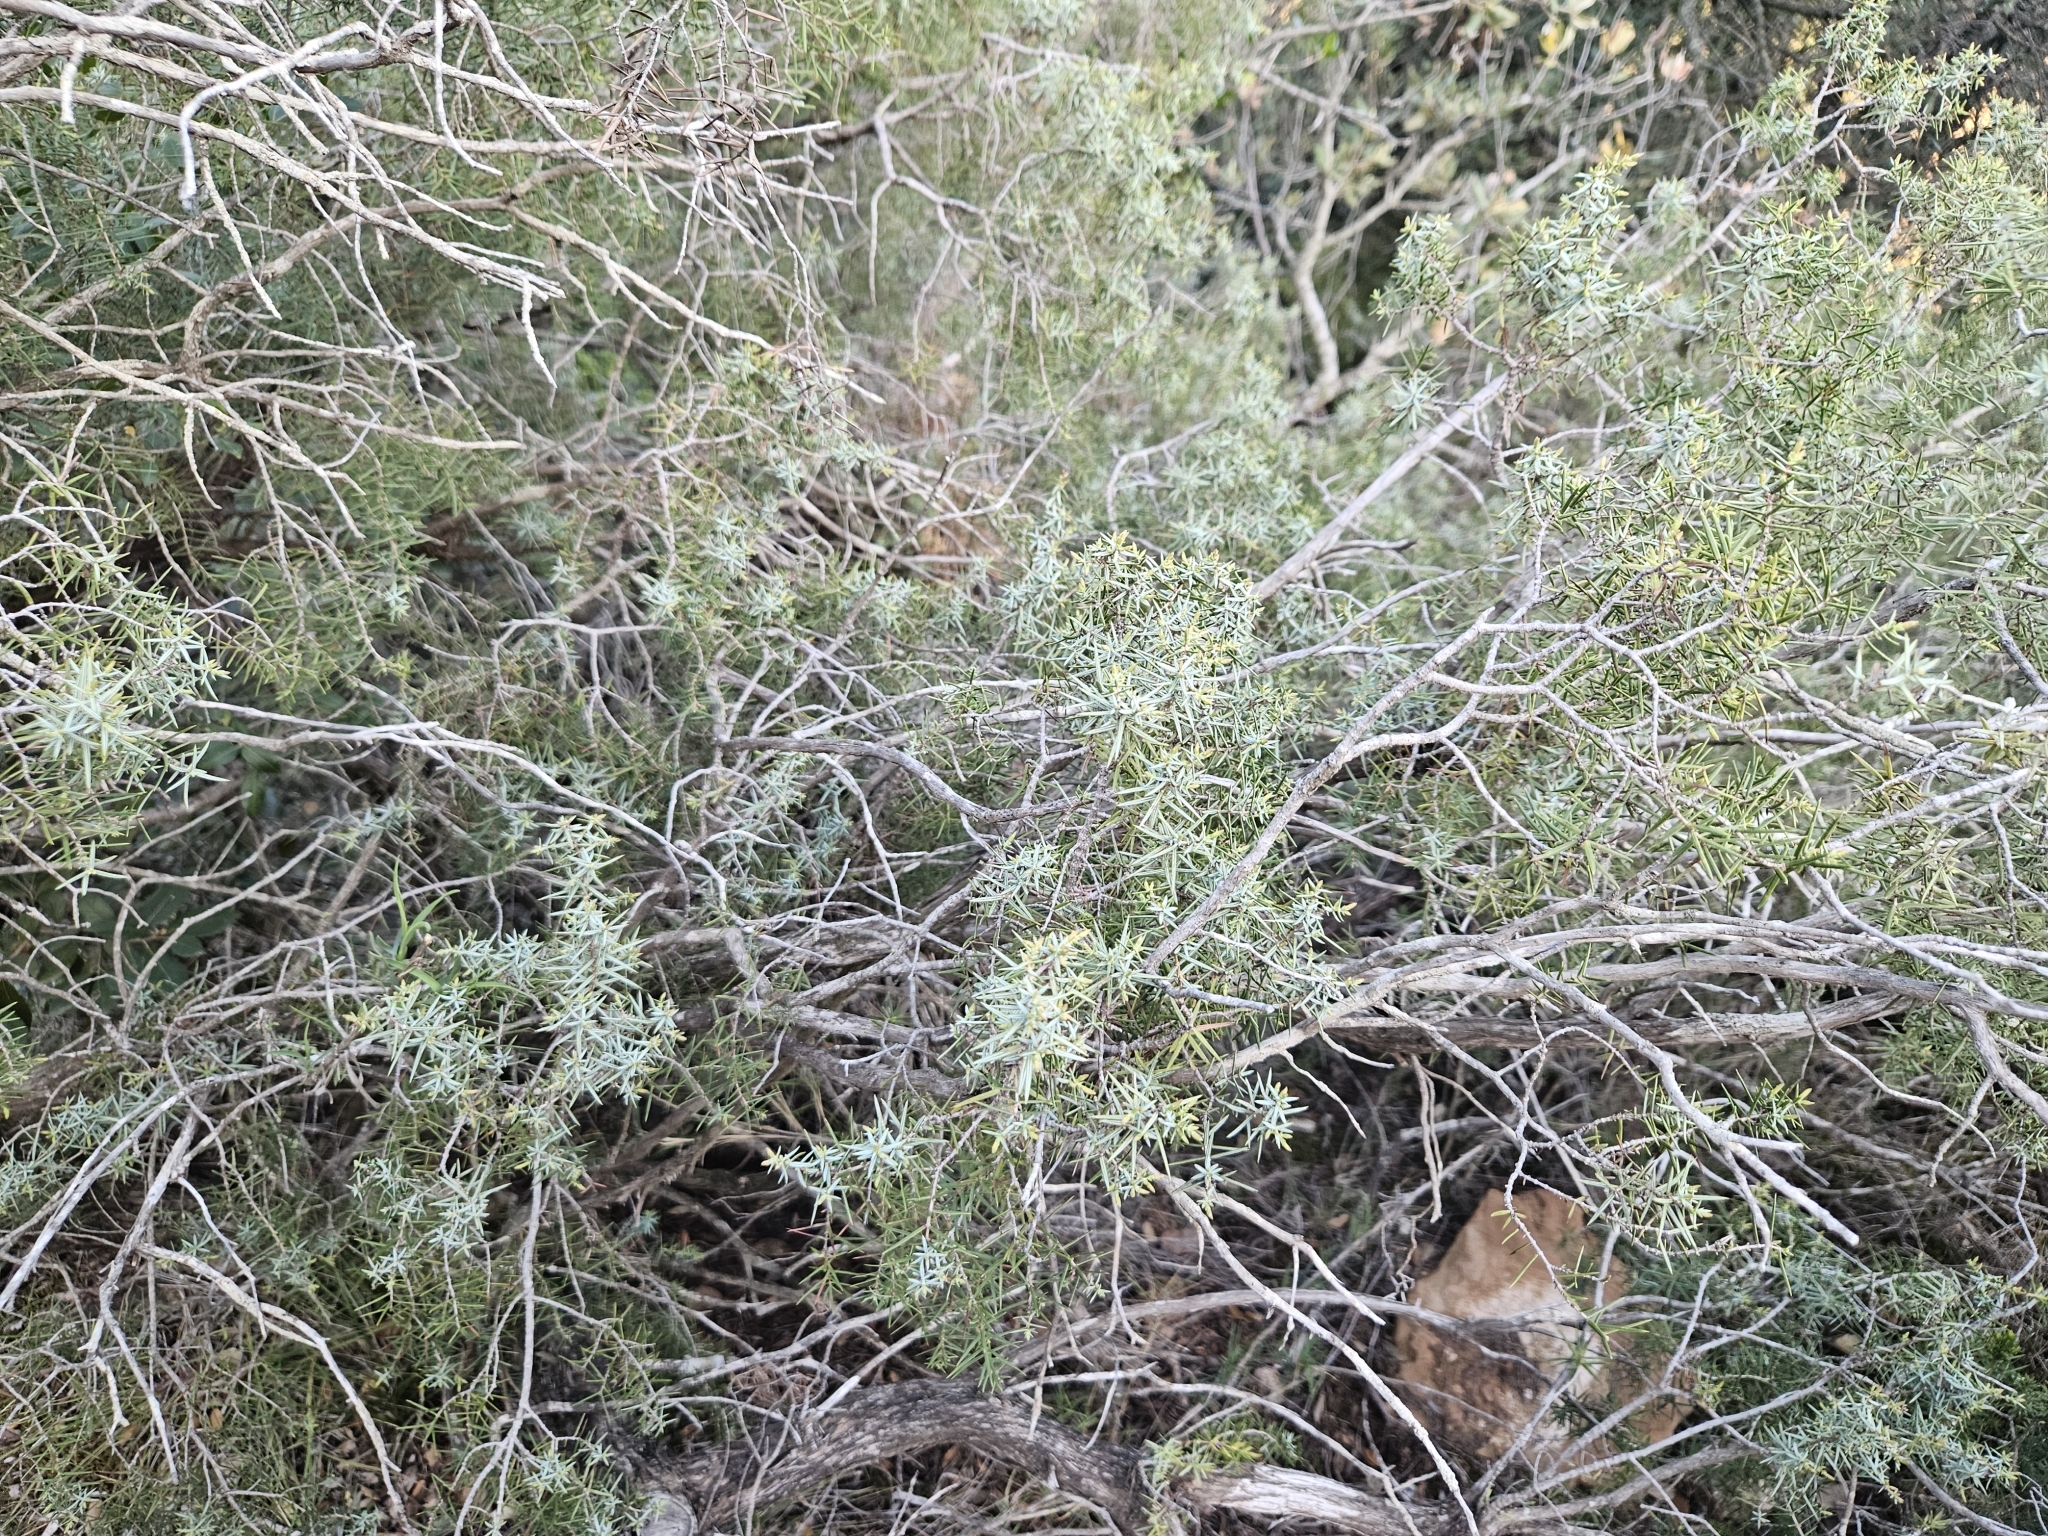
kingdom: Plantae
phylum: Tracheophyta
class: Pinopsida
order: Pinales
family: Cupressaceae
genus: Juniperus
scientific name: Juniperus oxycedrus
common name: Prickly juniper
